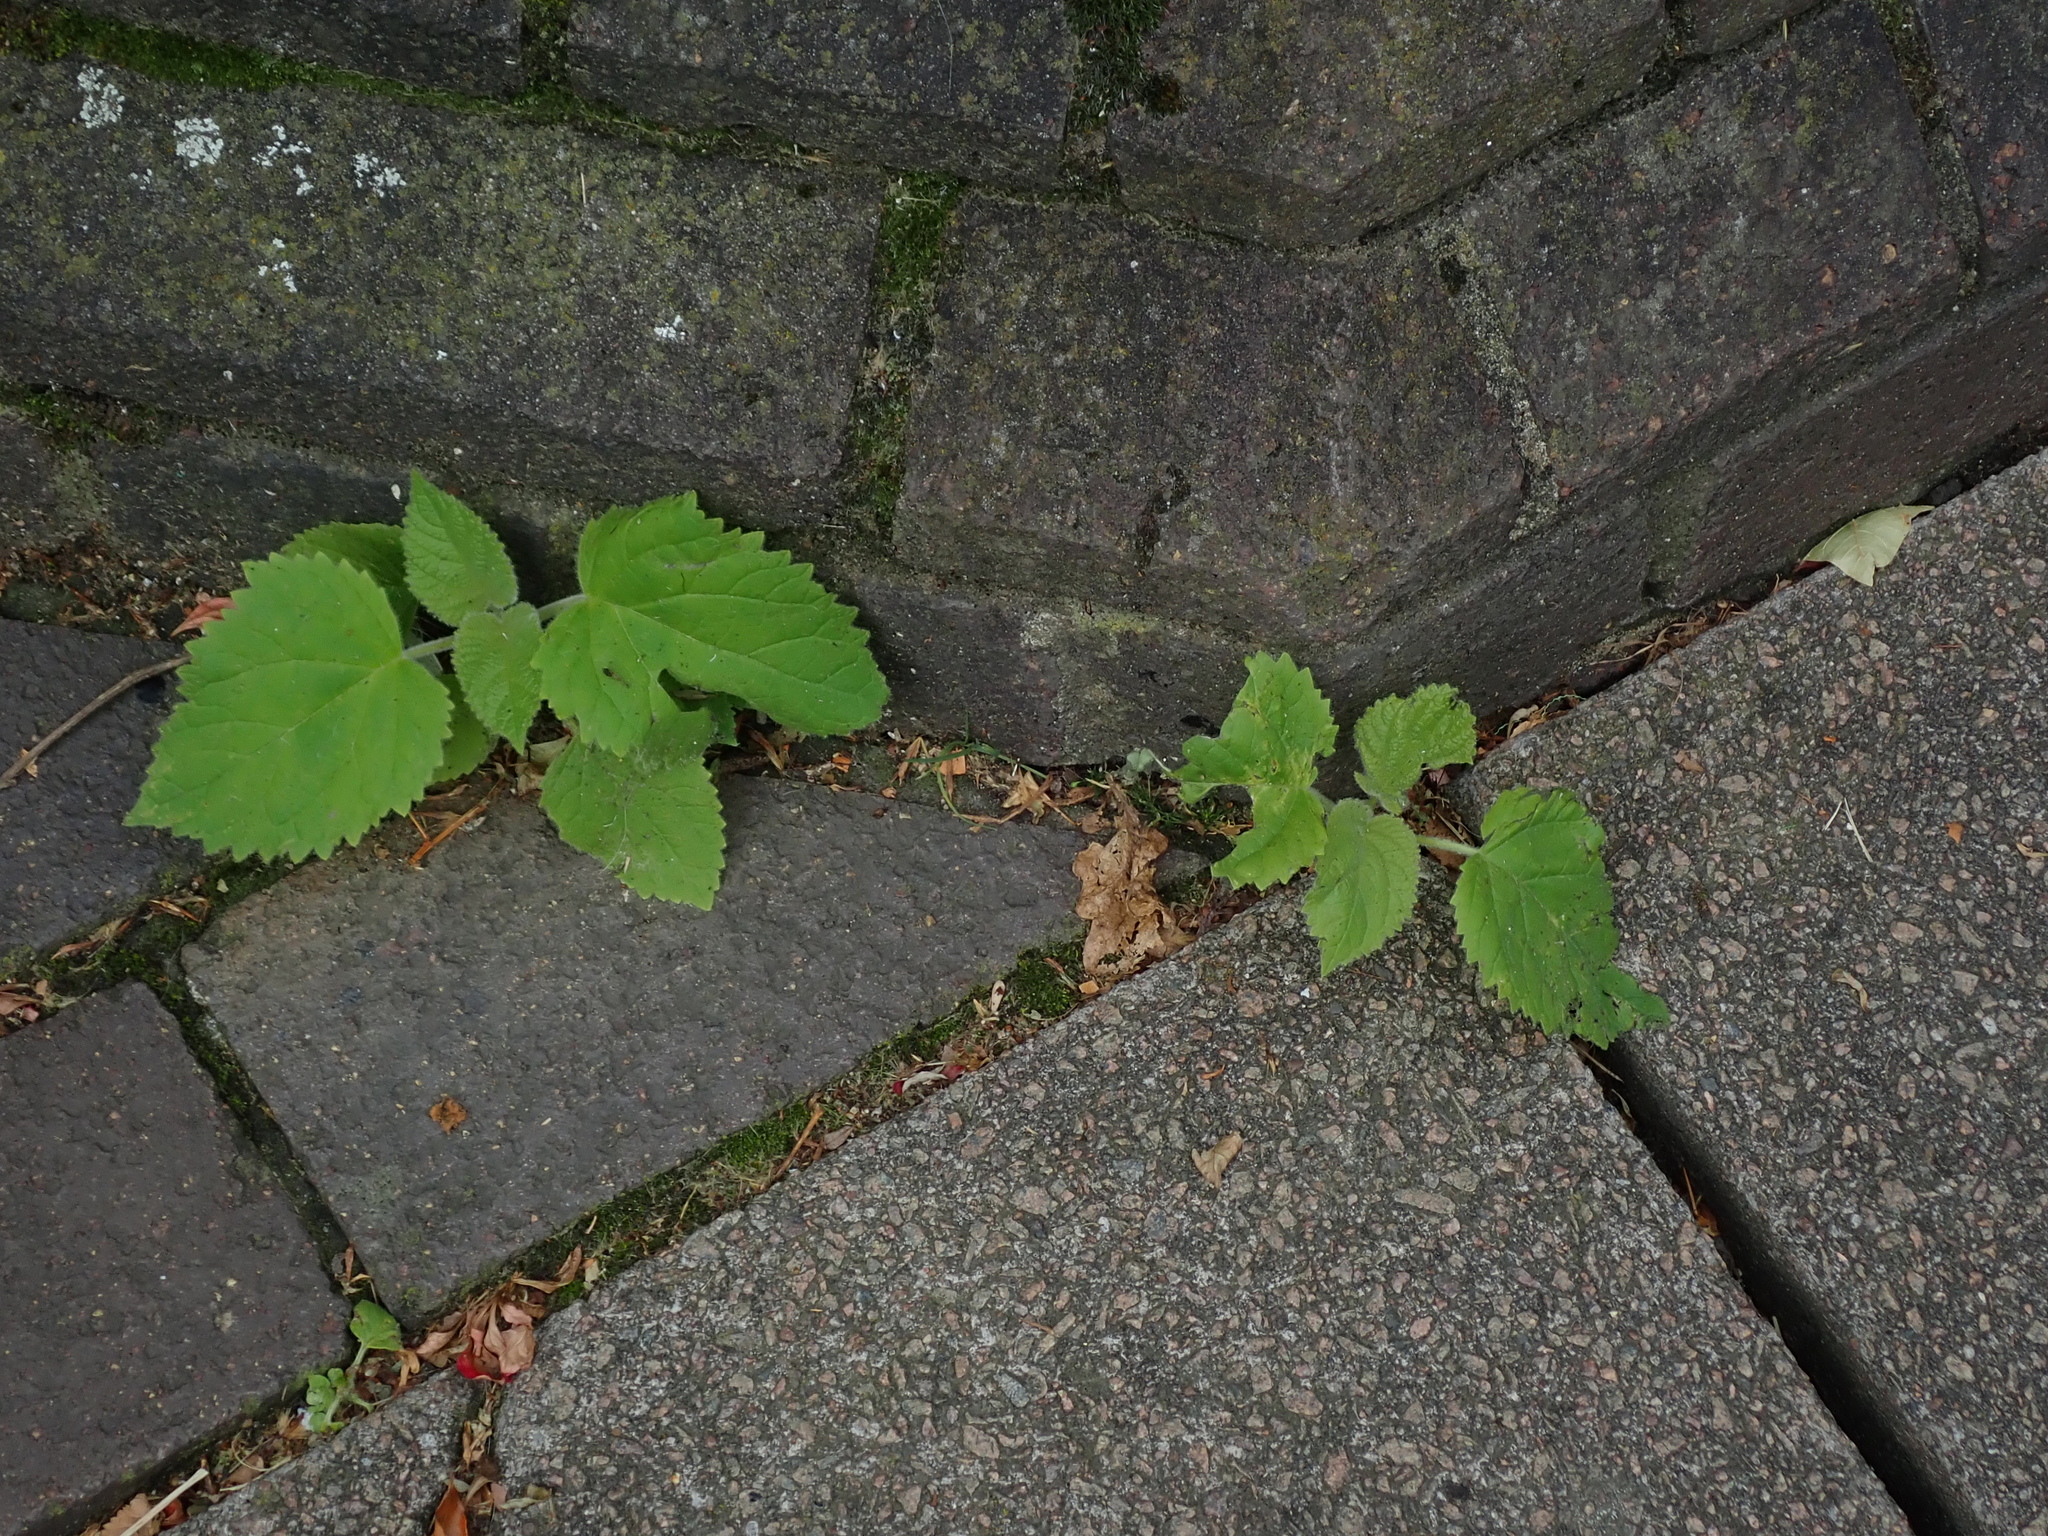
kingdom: Plantae
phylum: Tracheophyta
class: Magnoliopsida
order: Lamiales
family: Paulowniaceae
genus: Paulownia
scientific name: Paulownia tomentosa
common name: Foxglove-tree
